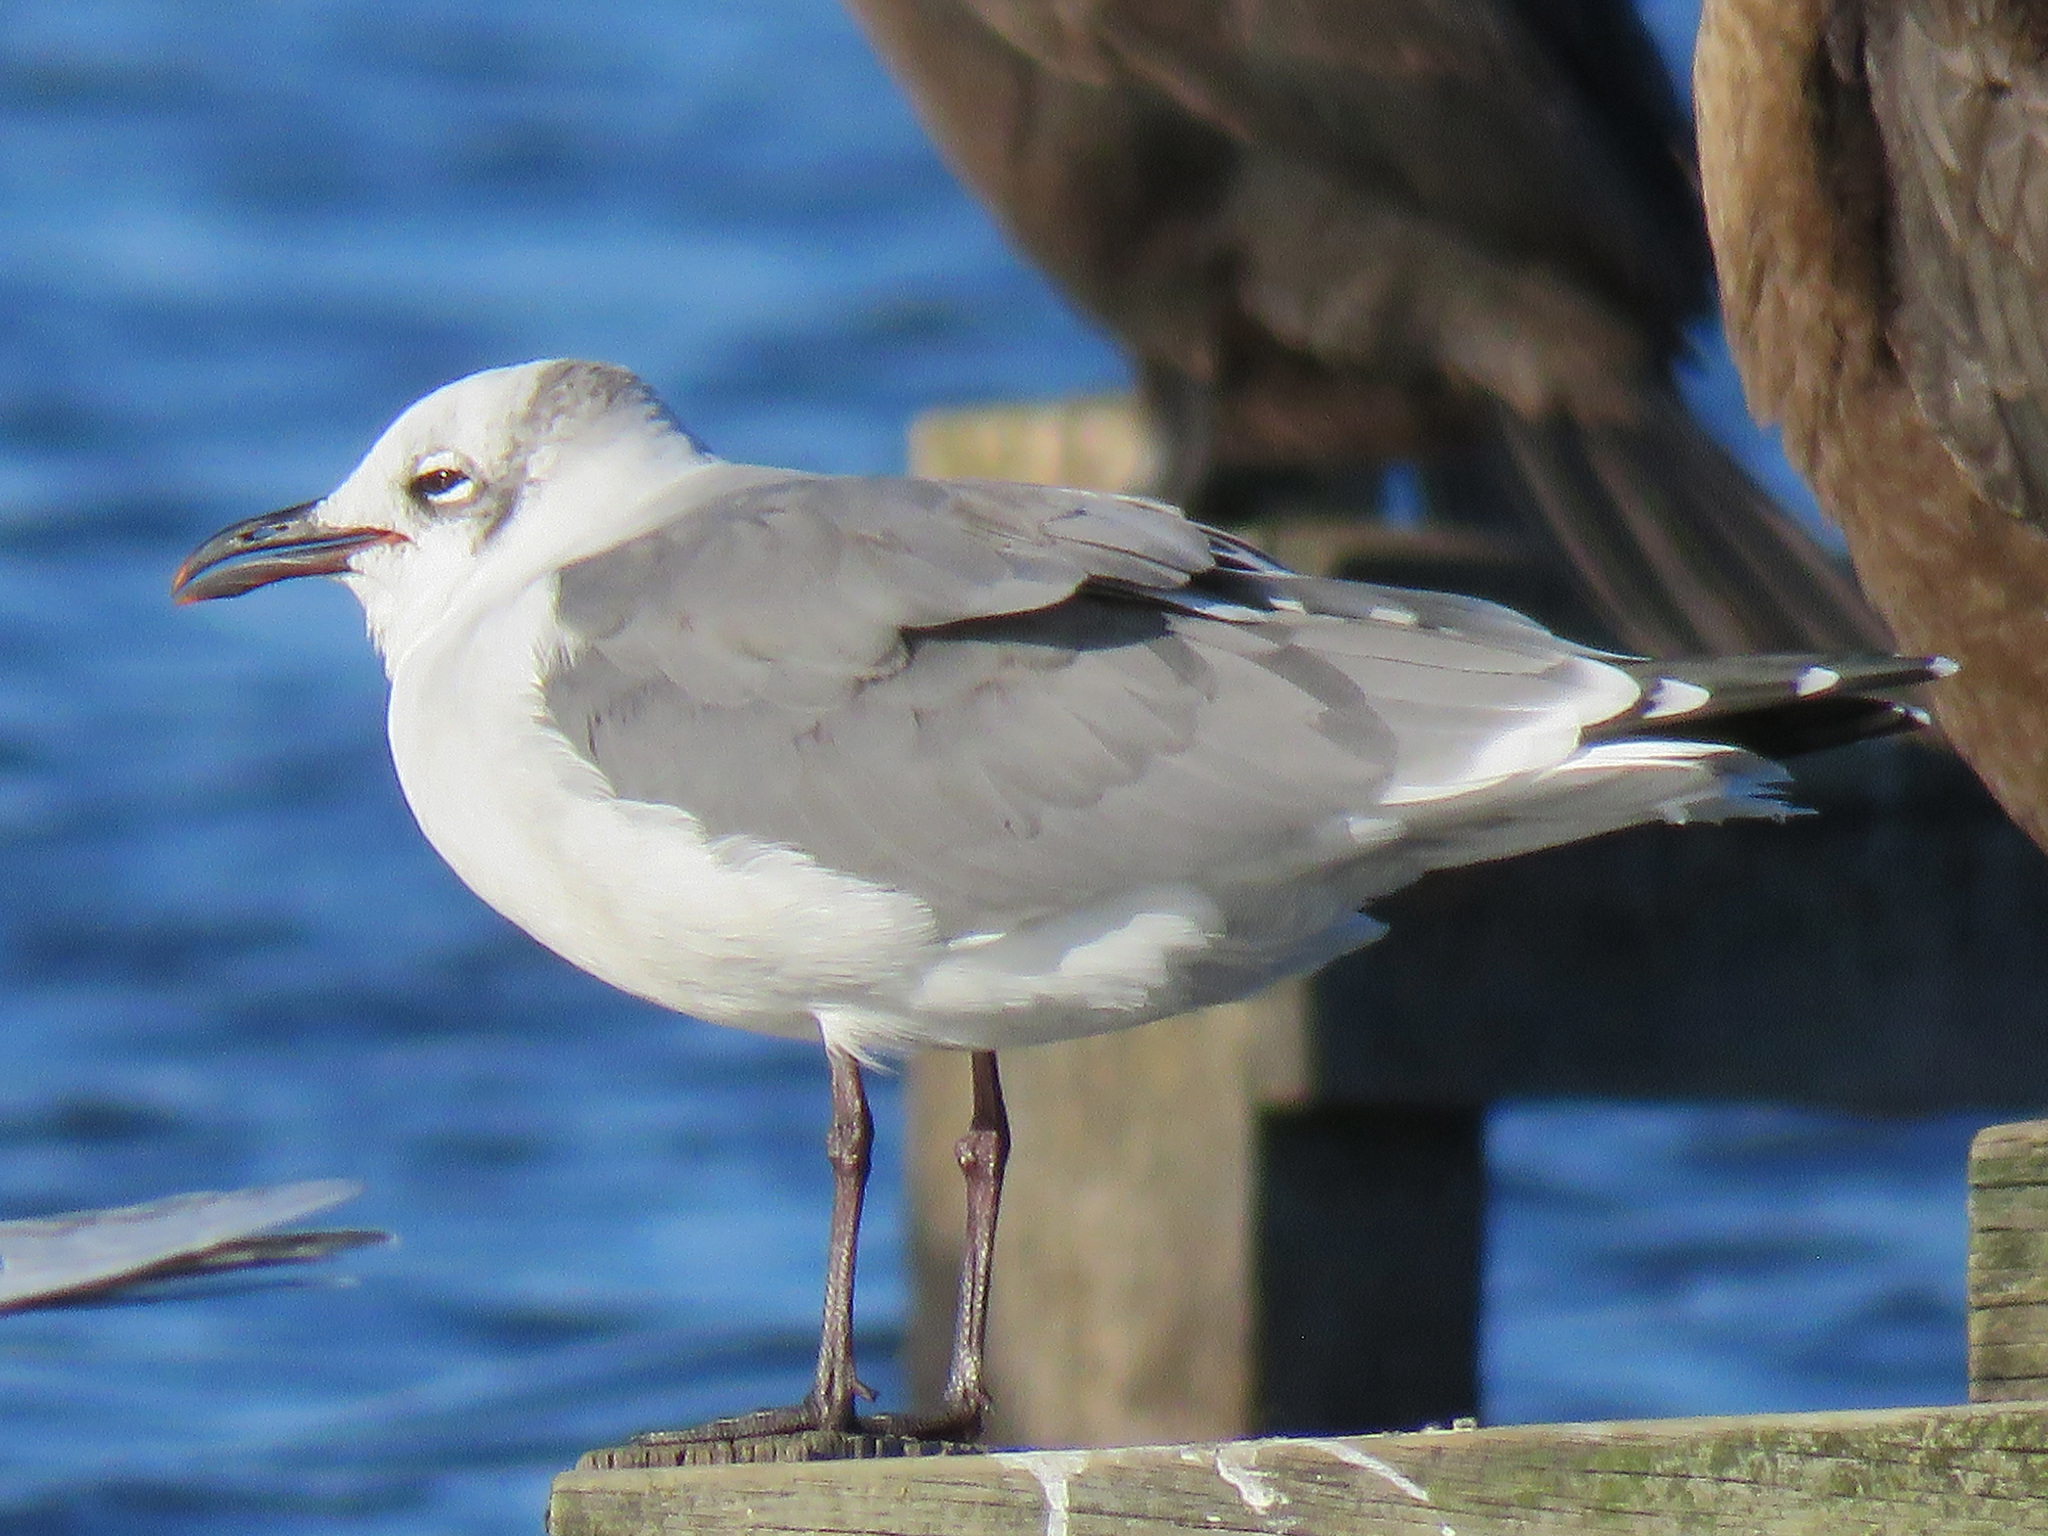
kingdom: Animalia
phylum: Chordata
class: Aves
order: Charadriiformes
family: Laridae
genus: Leucophaeus
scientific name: Leucophaeus atricilla
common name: Laughing gull
